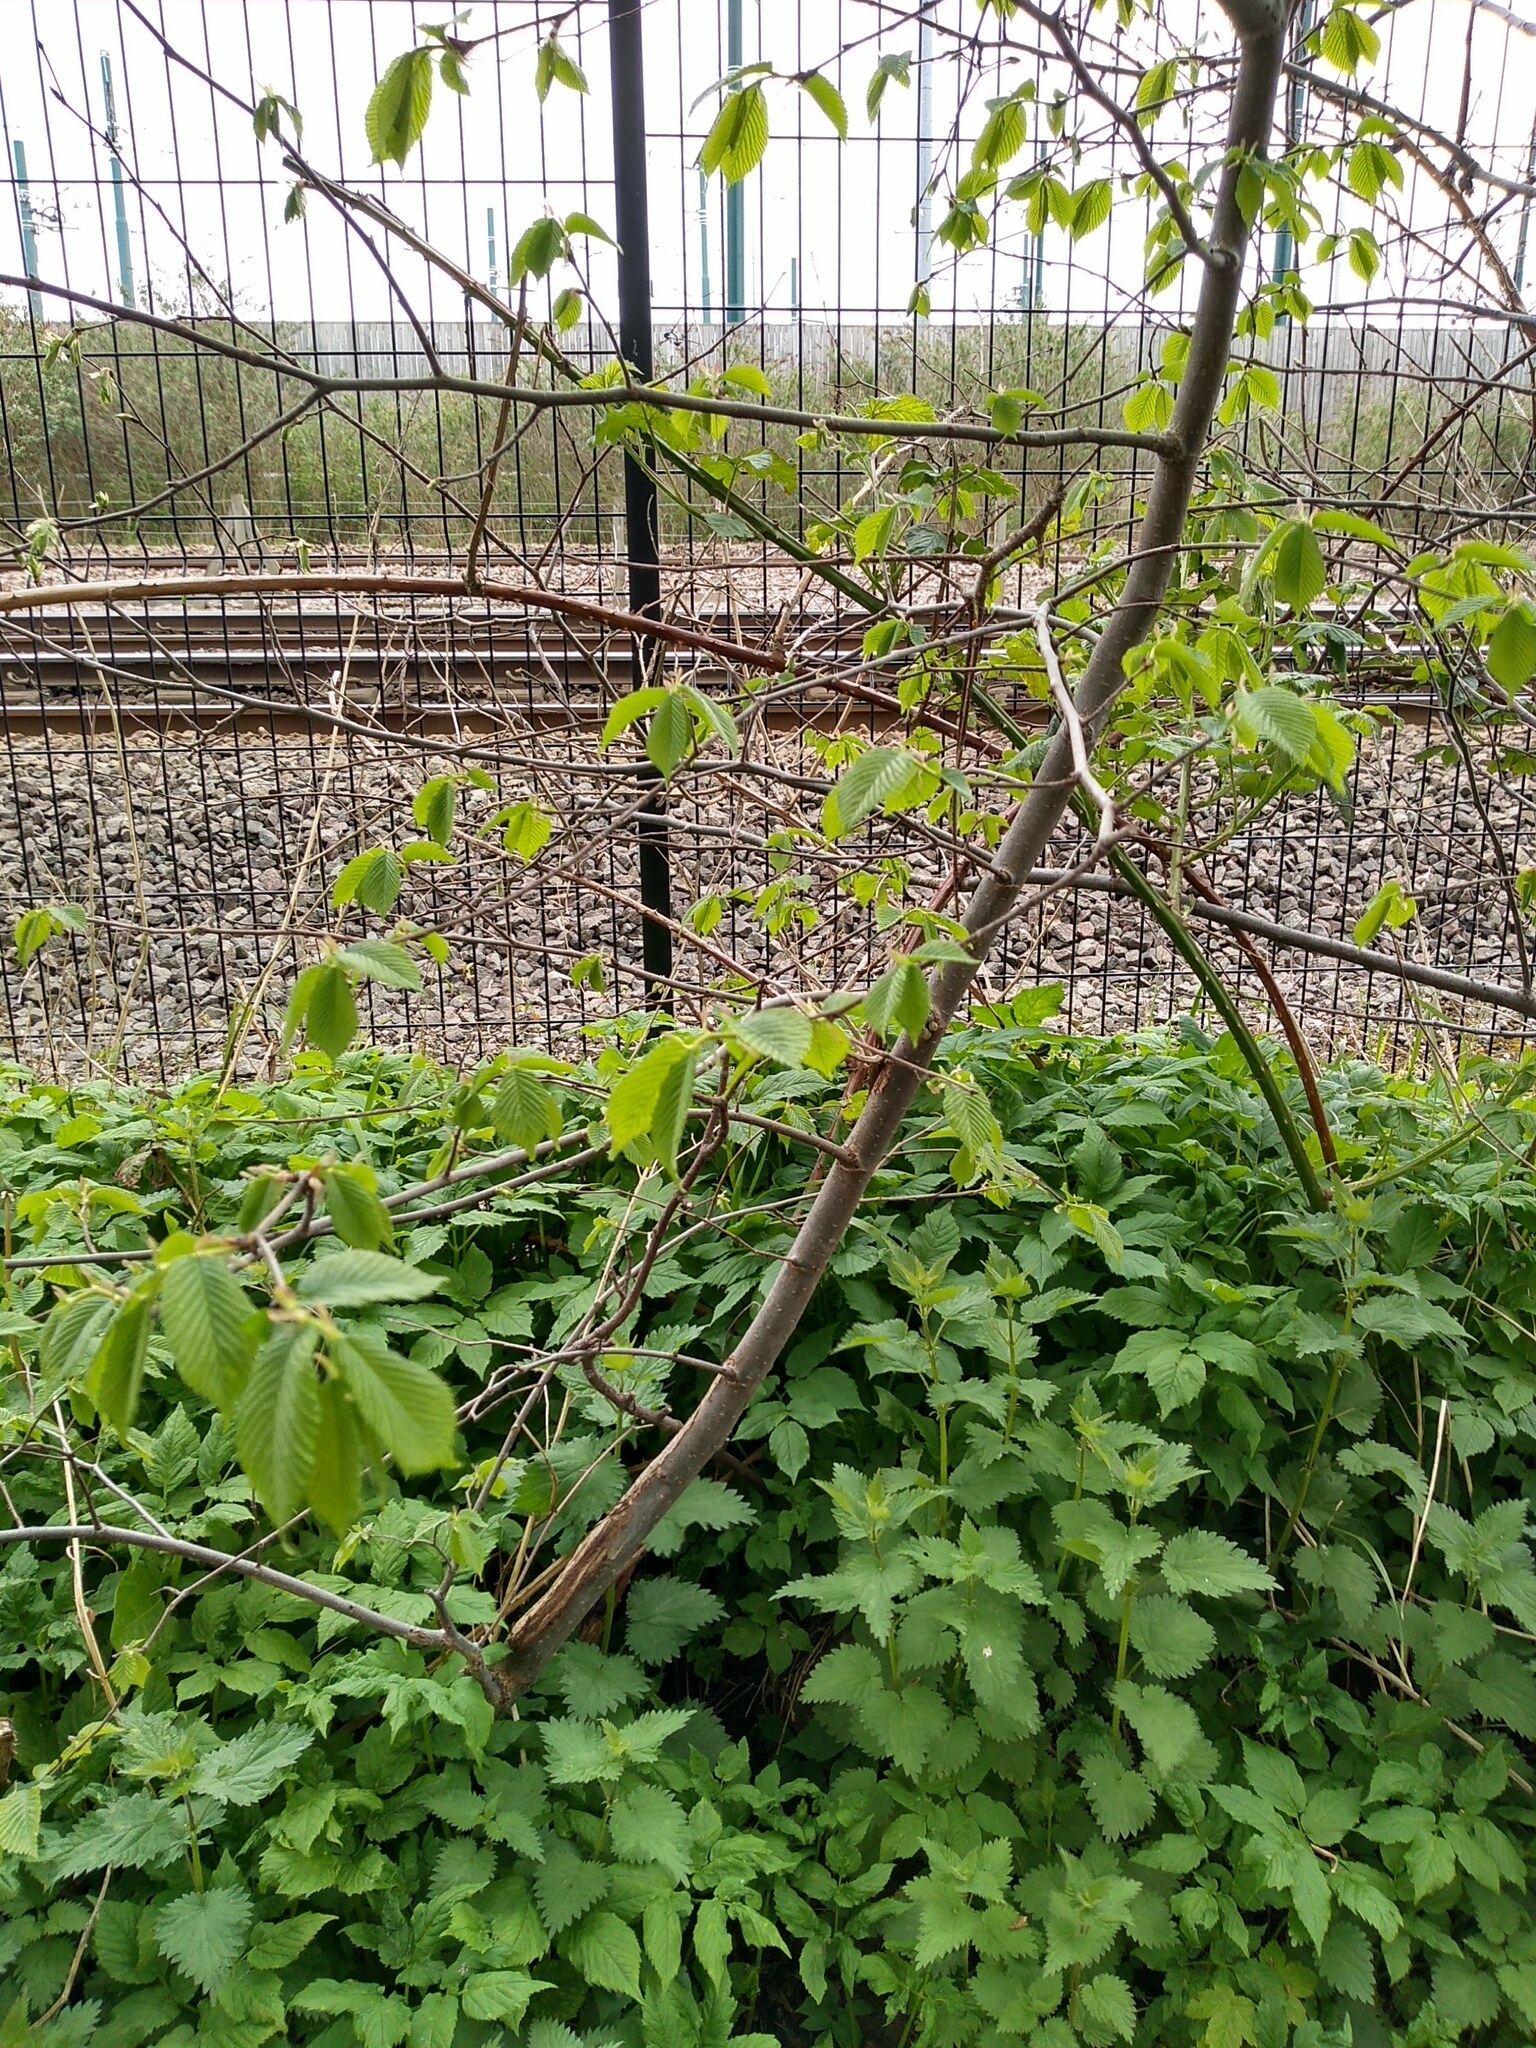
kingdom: Plantae
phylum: Tracheophyta
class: Magnoliopsida
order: Rosales
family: Ulmaceae
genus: Ulmus
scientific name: Ulmus glabra
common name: Wych elm
